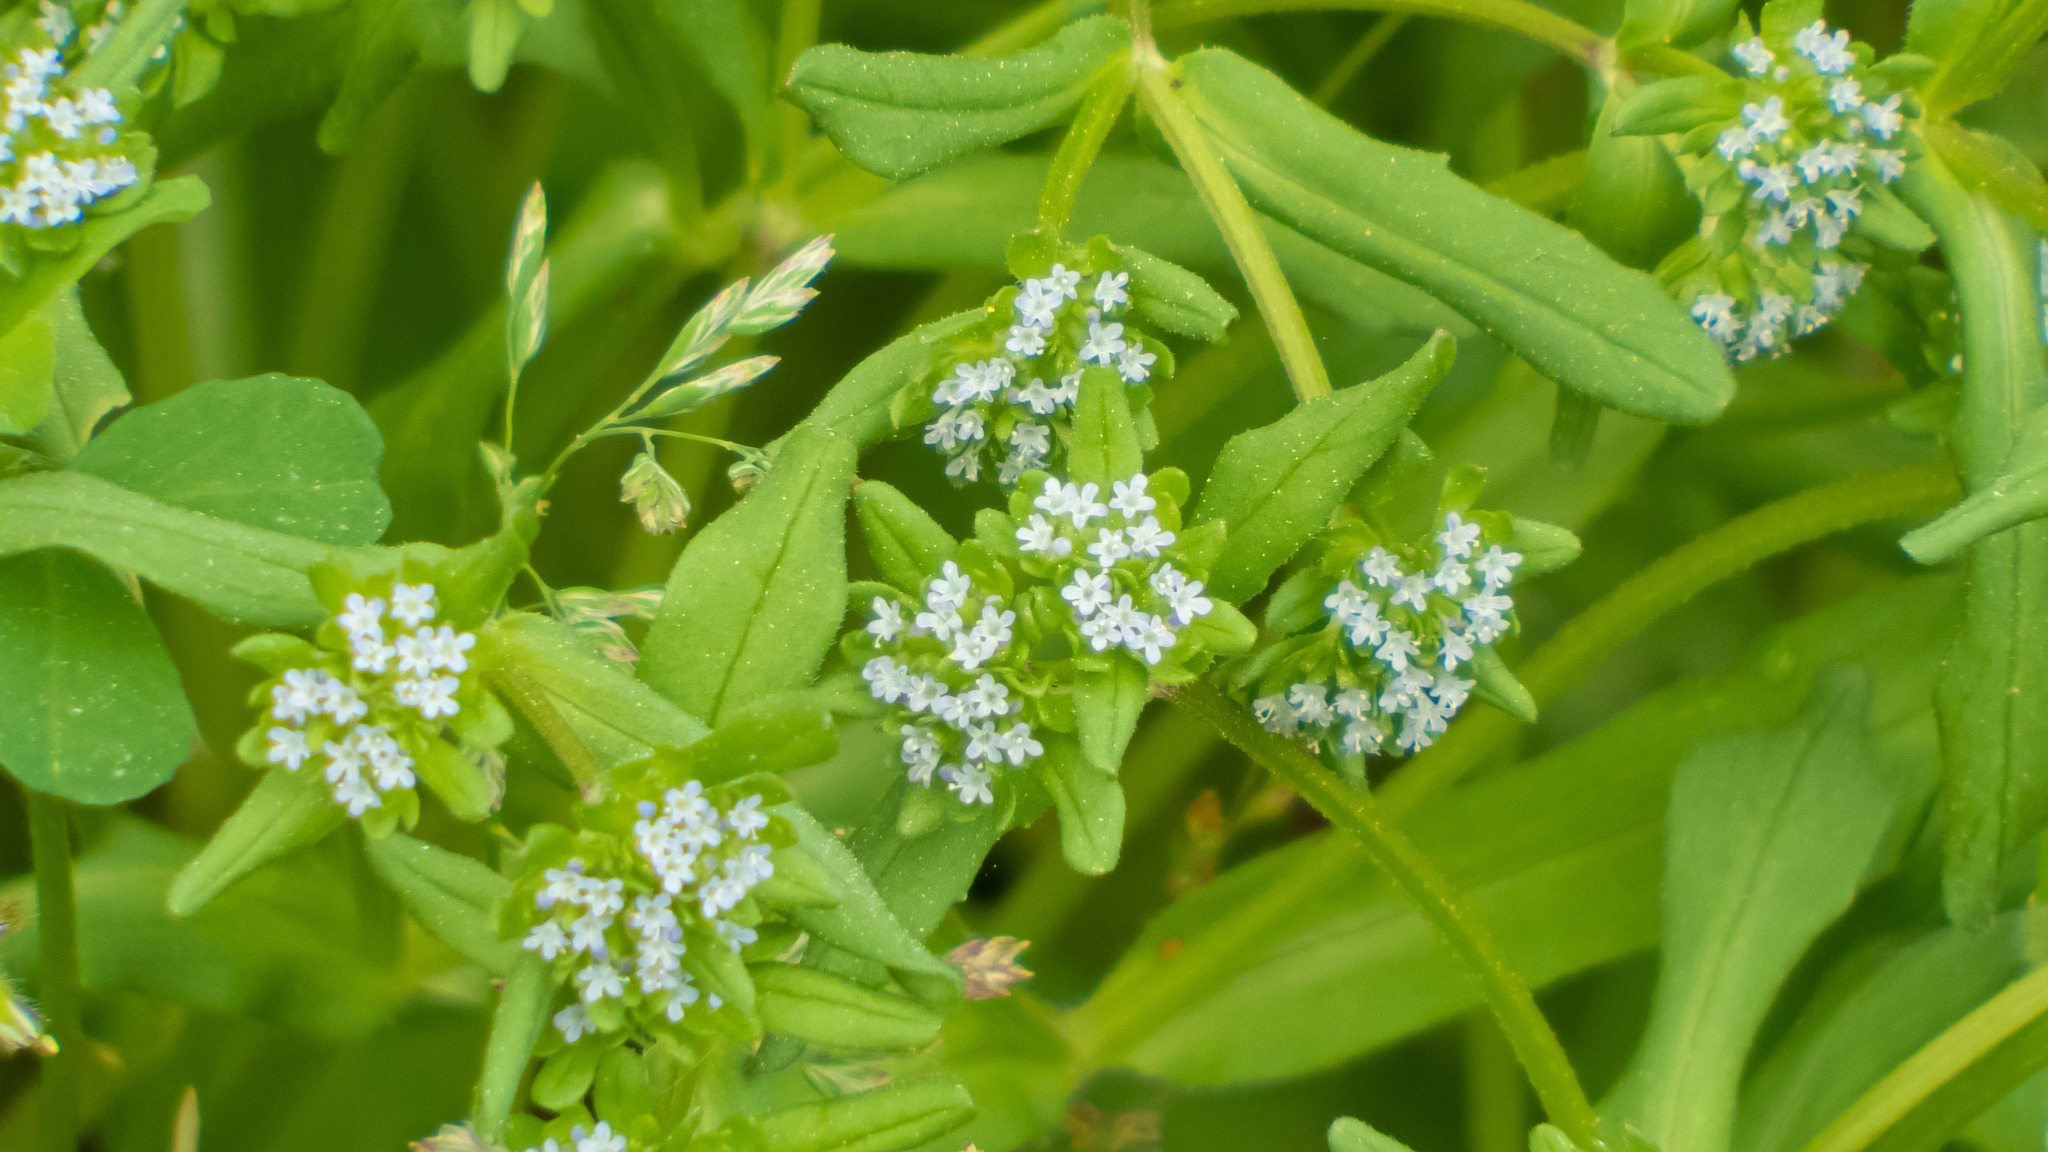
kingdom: Plantae
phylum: Tracheophyta
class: Magnoliopsida
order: Dipsacales
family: Caprifoliaceae
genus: Valerianella
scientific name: Valerianella locusta
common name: Common cornsalad
